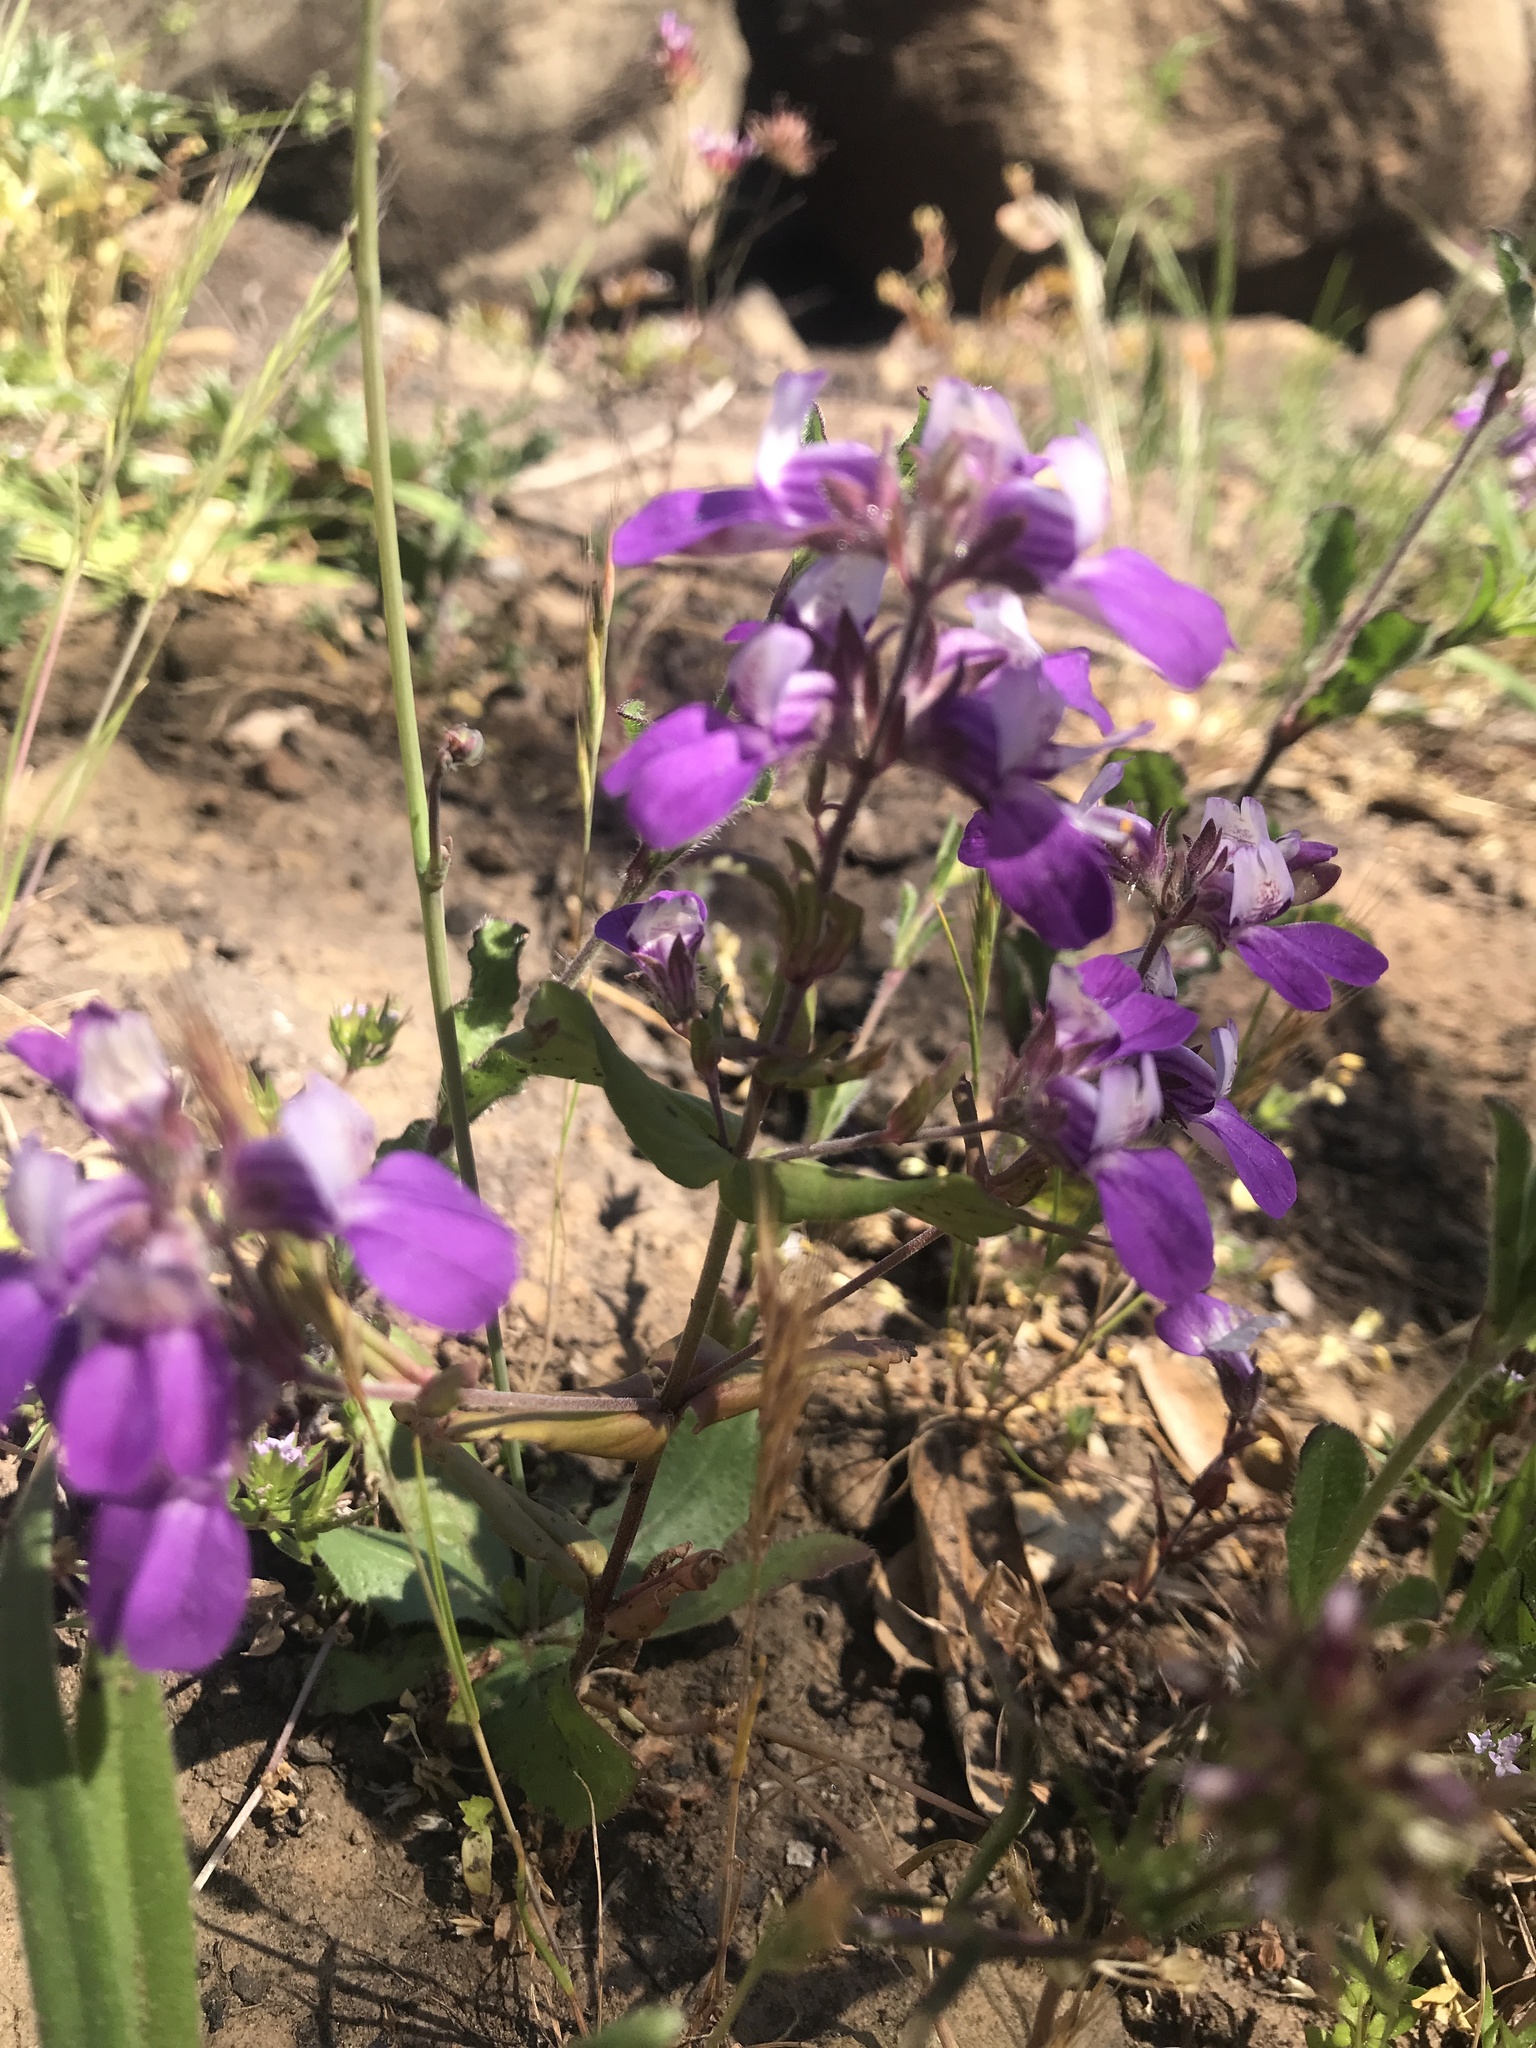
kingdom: Plantae
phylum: Tracheophyta
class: Magnoliopsida
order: Lamiales
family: Plantaginaceae
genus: Collinsia
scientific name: Collinsia heterophylla
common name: Chinese-houses
